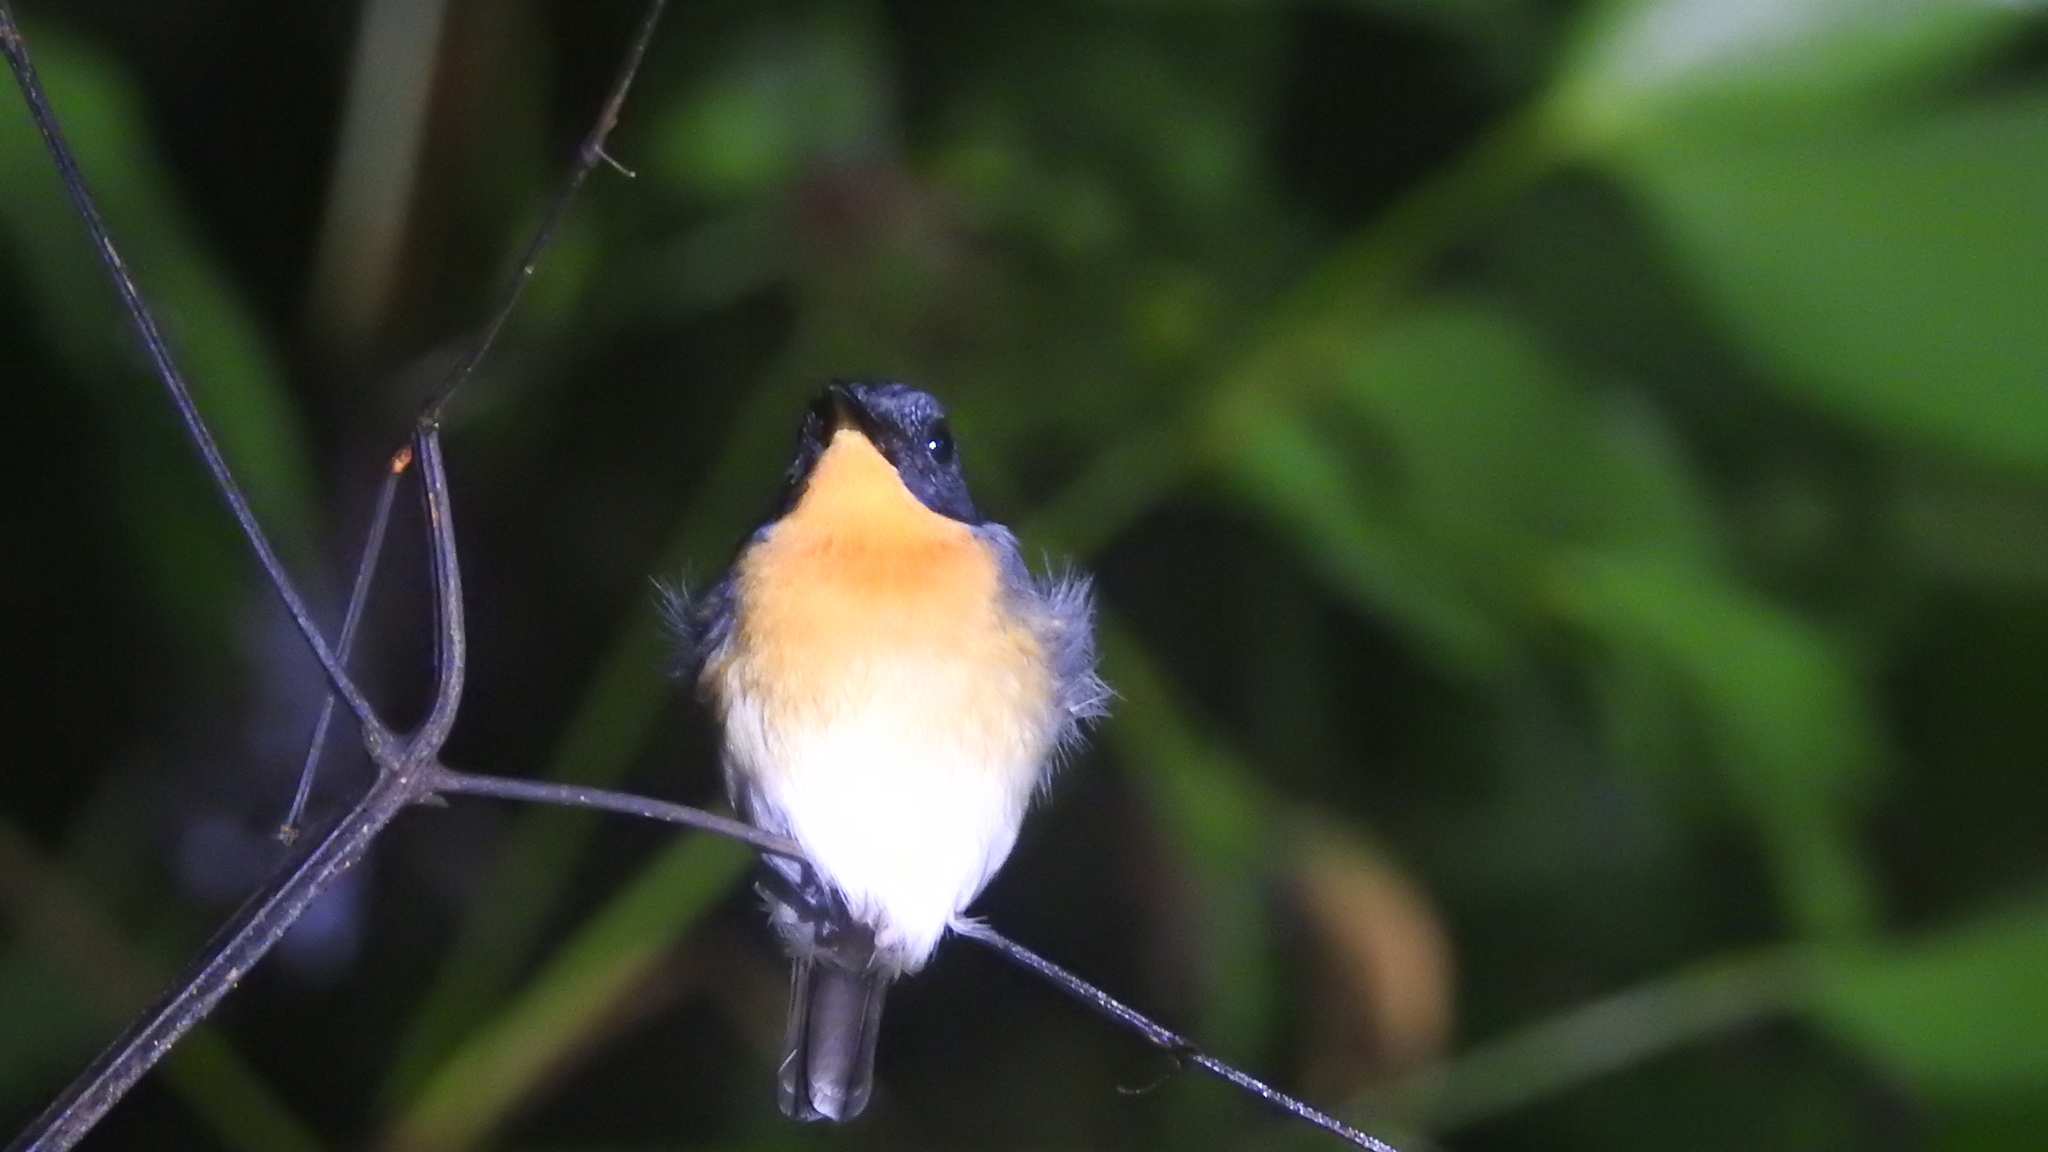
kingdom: Animalia
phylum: Chordata
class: Aves
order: Passeriformes
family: Muscicapidae
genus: Ficedula
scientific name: Ficedula rufigula
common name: Rufous-throated flycatcher
